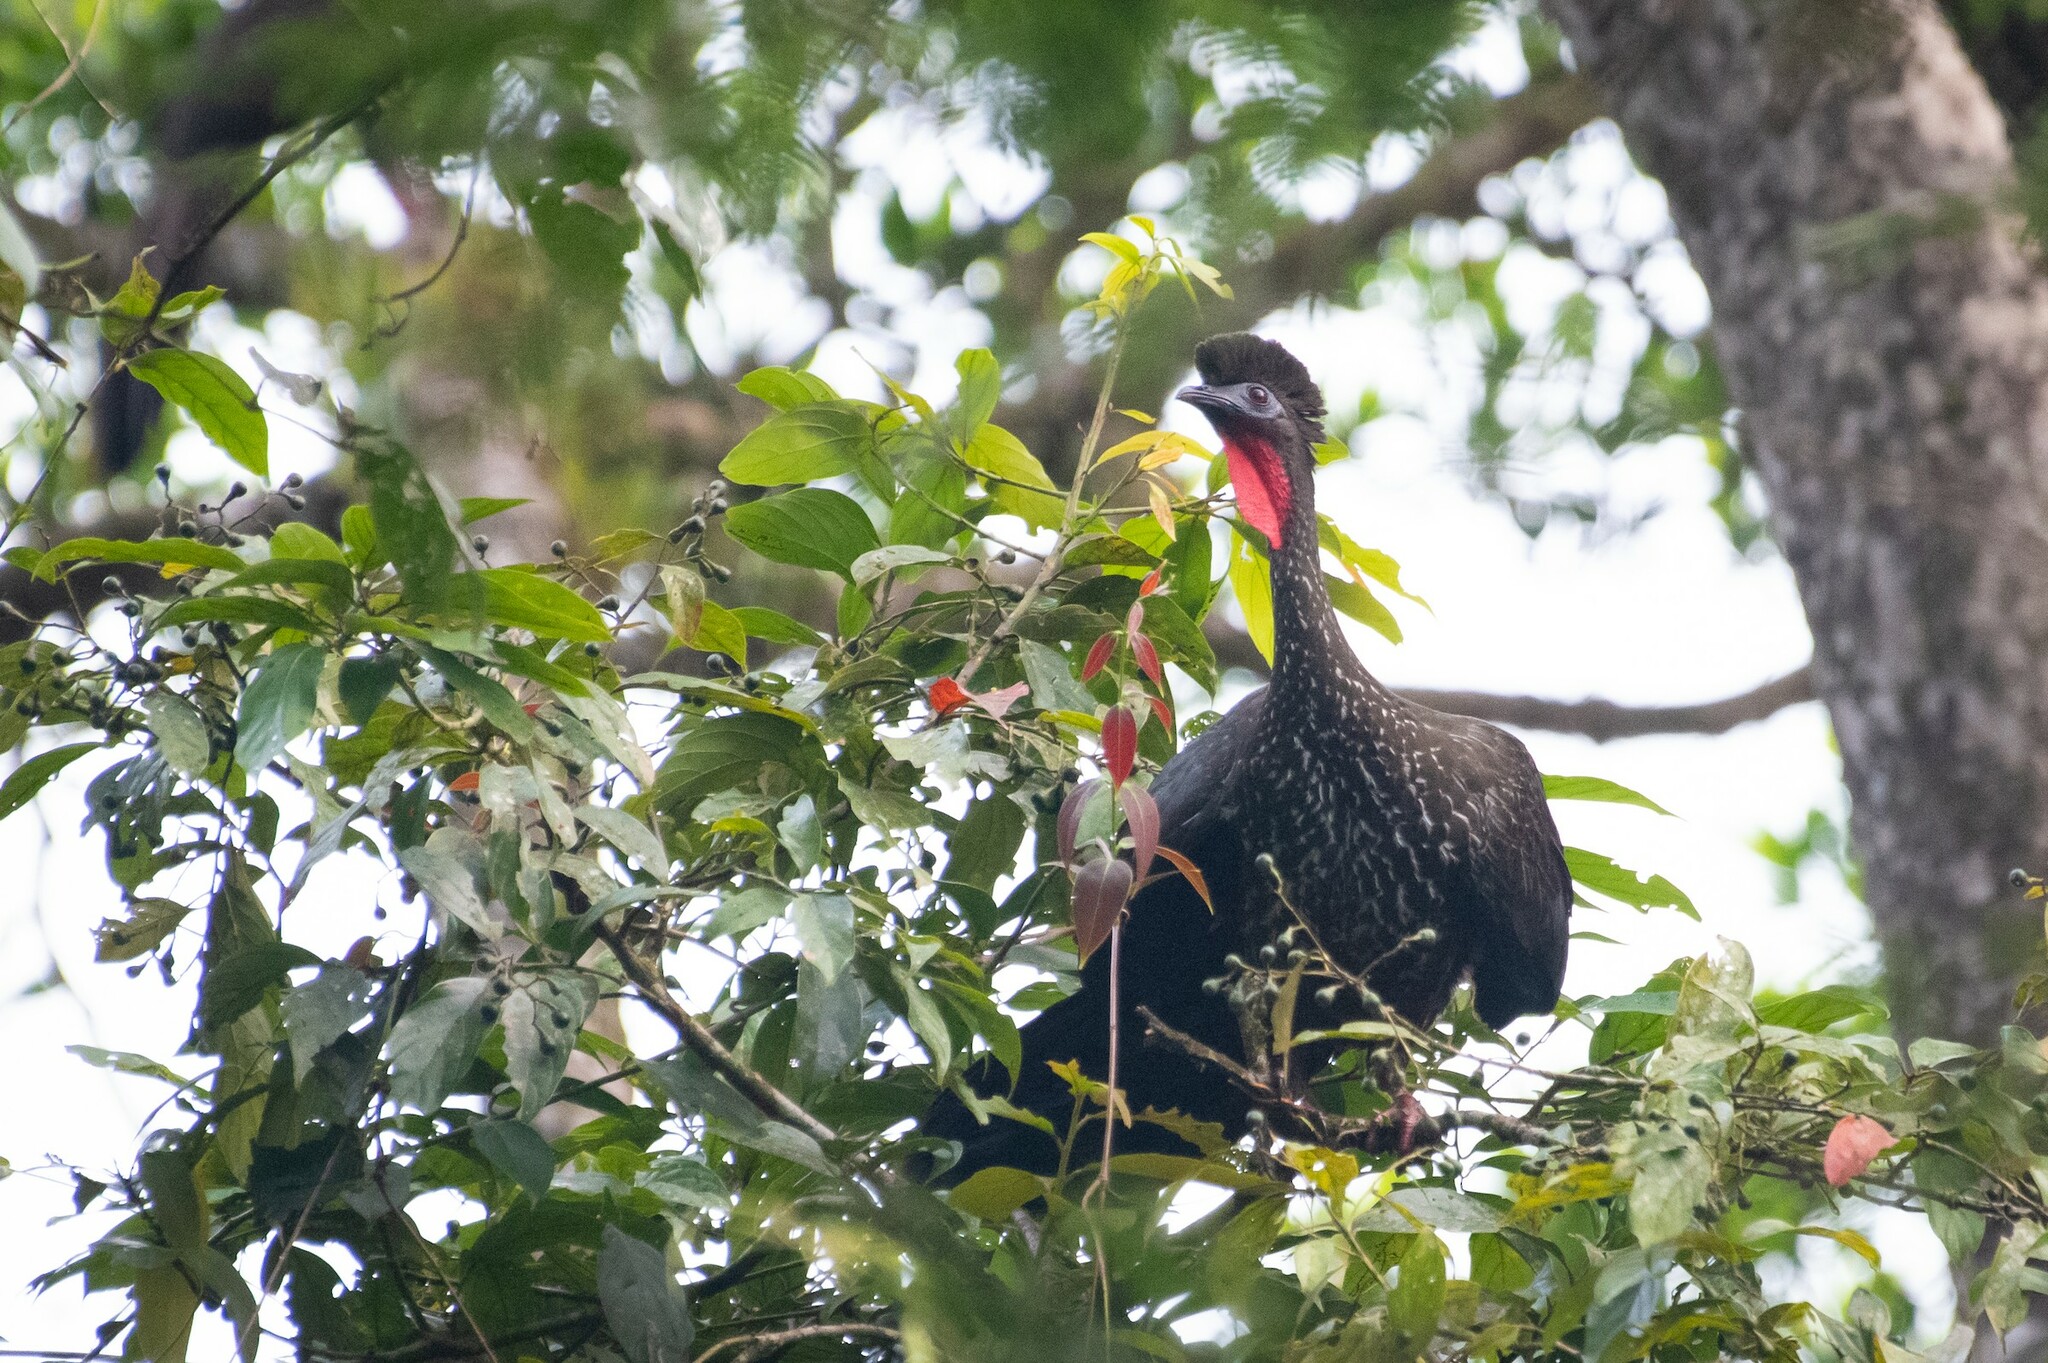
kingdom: Animalia
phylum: Chordata
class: Aves
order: Galliformes
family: Cracidae
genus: Penelope
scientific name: Penelope purpurascens
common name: Crested guan
